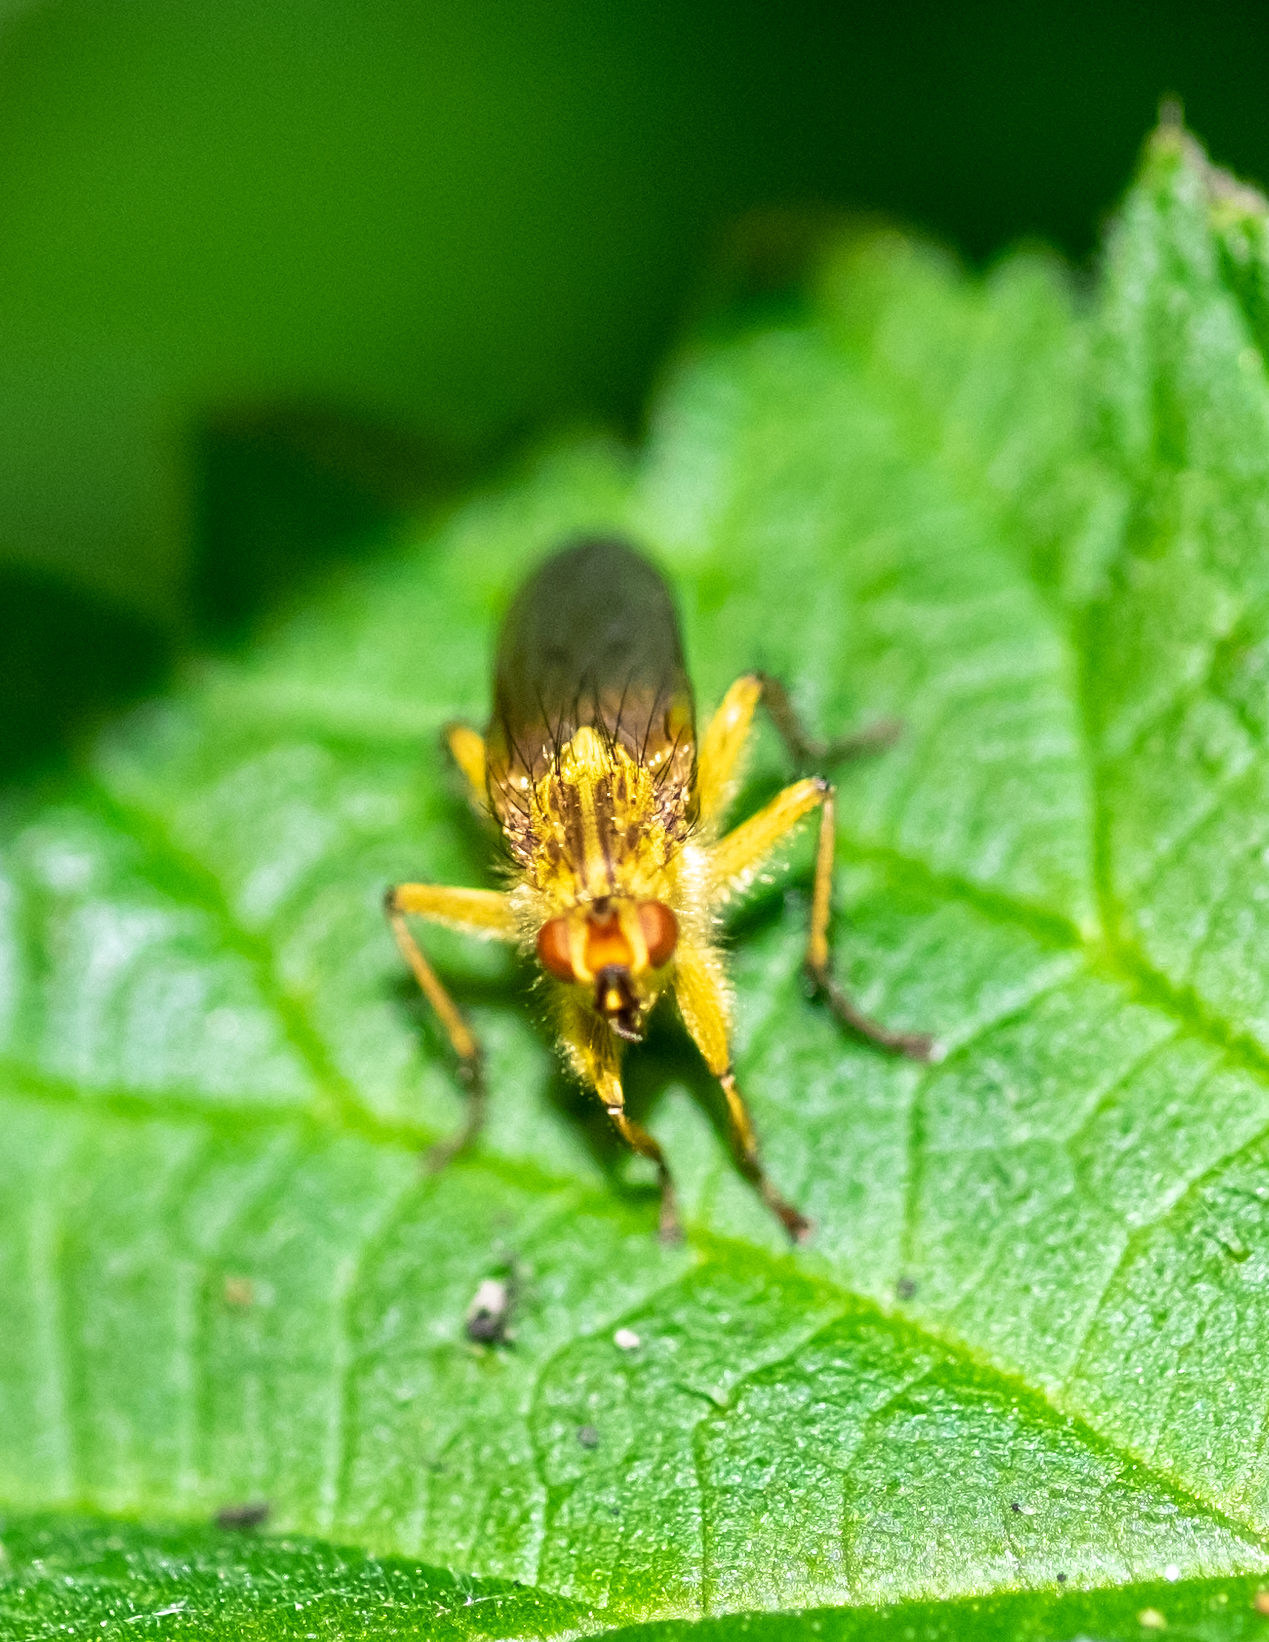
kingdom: Animalia
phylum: Arthropoda
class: Insecta
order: Diptera
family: Scathophagidae
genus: Scathophaga
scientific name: Scathophaga stercoraria
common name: Yellow dung fly
